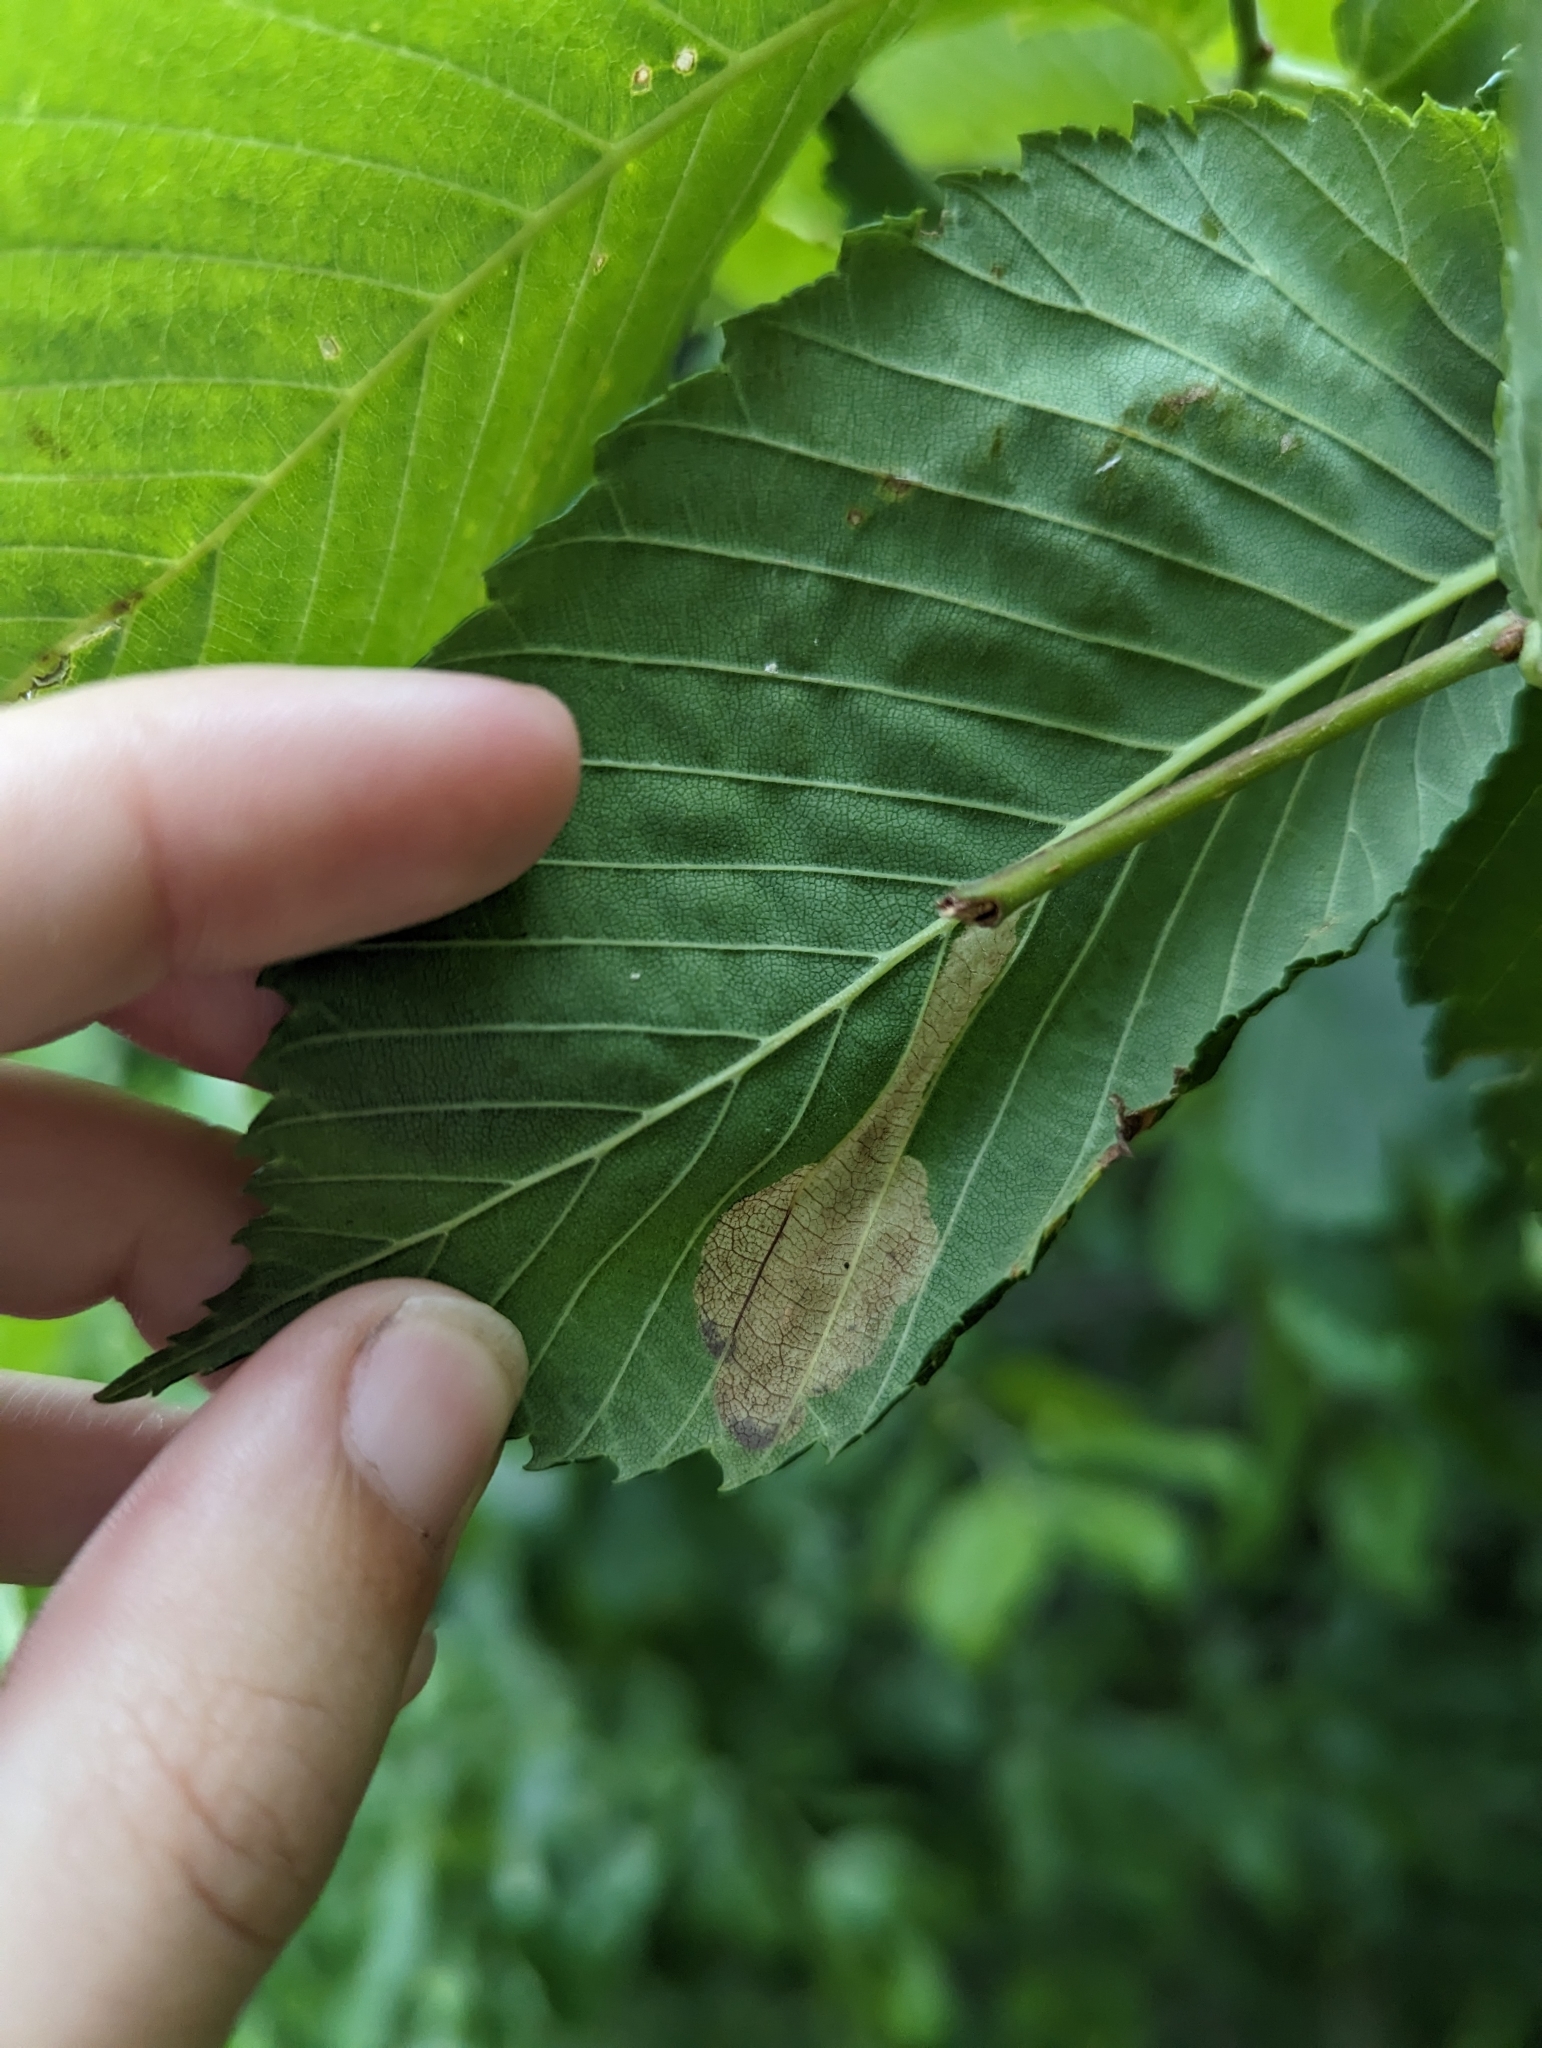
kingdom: Animalia
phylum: Arthropoda
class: Insecta
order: Hymenoptera
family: Tenthredinidae
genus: Fenusa
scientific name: Fenusa ulmi
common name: Elm leafminer
